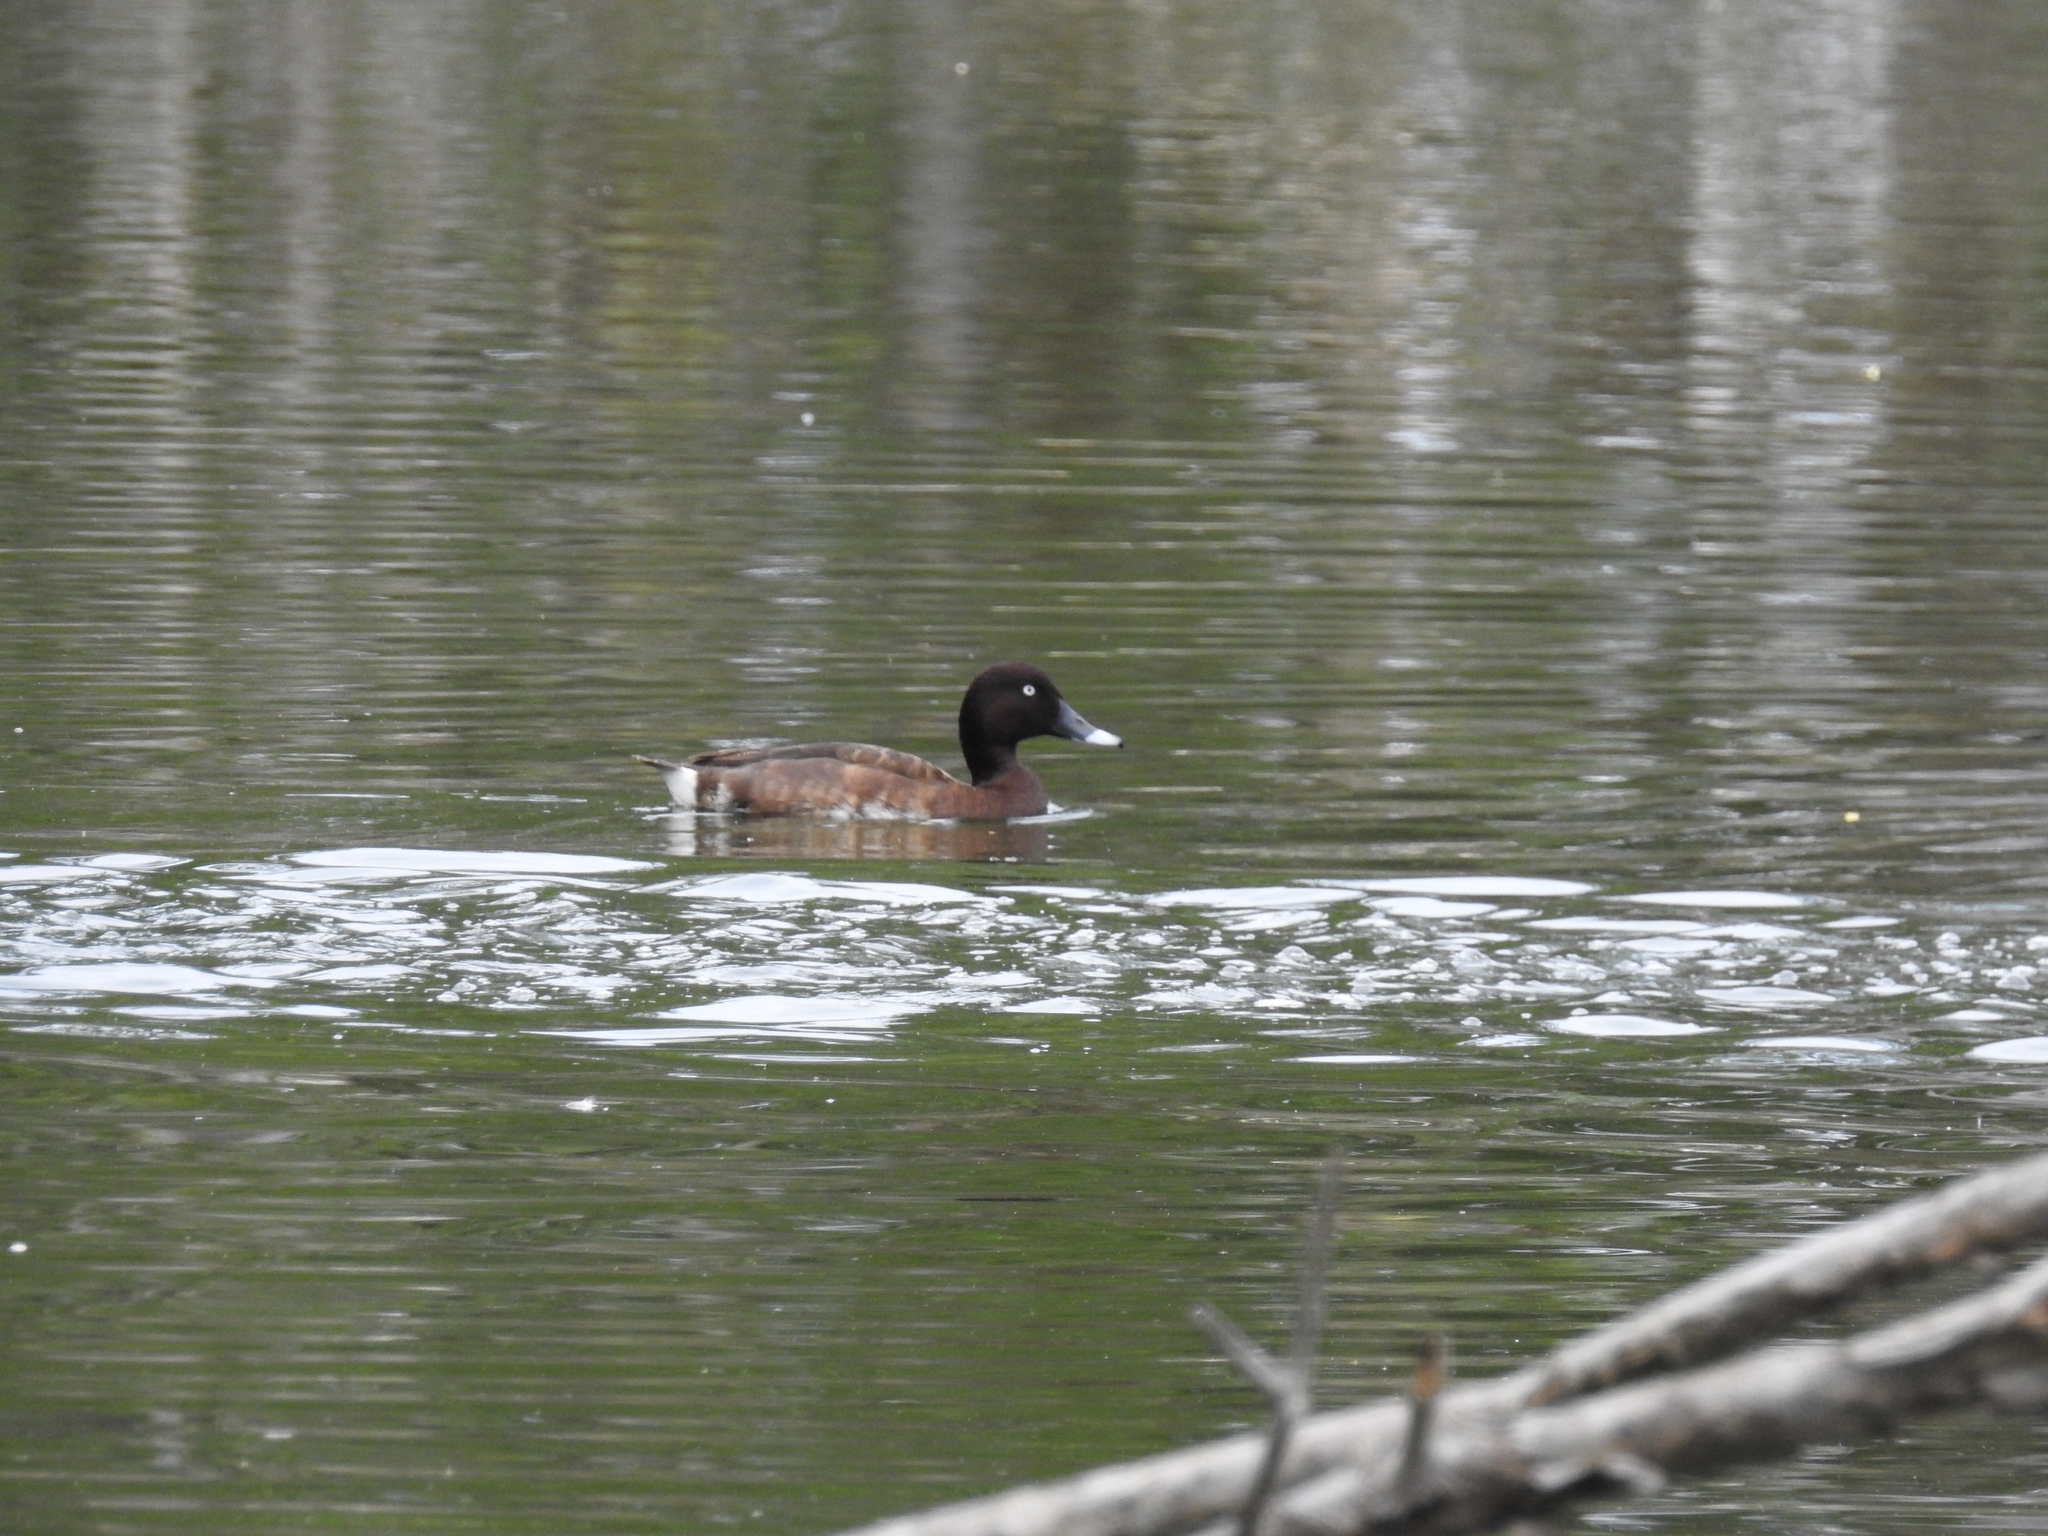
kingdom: Animalia
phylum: Chordata
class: Aves
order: Anseriformes
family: Anatidae
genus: Aythya
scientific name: Aythya australis
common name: Hardhead
